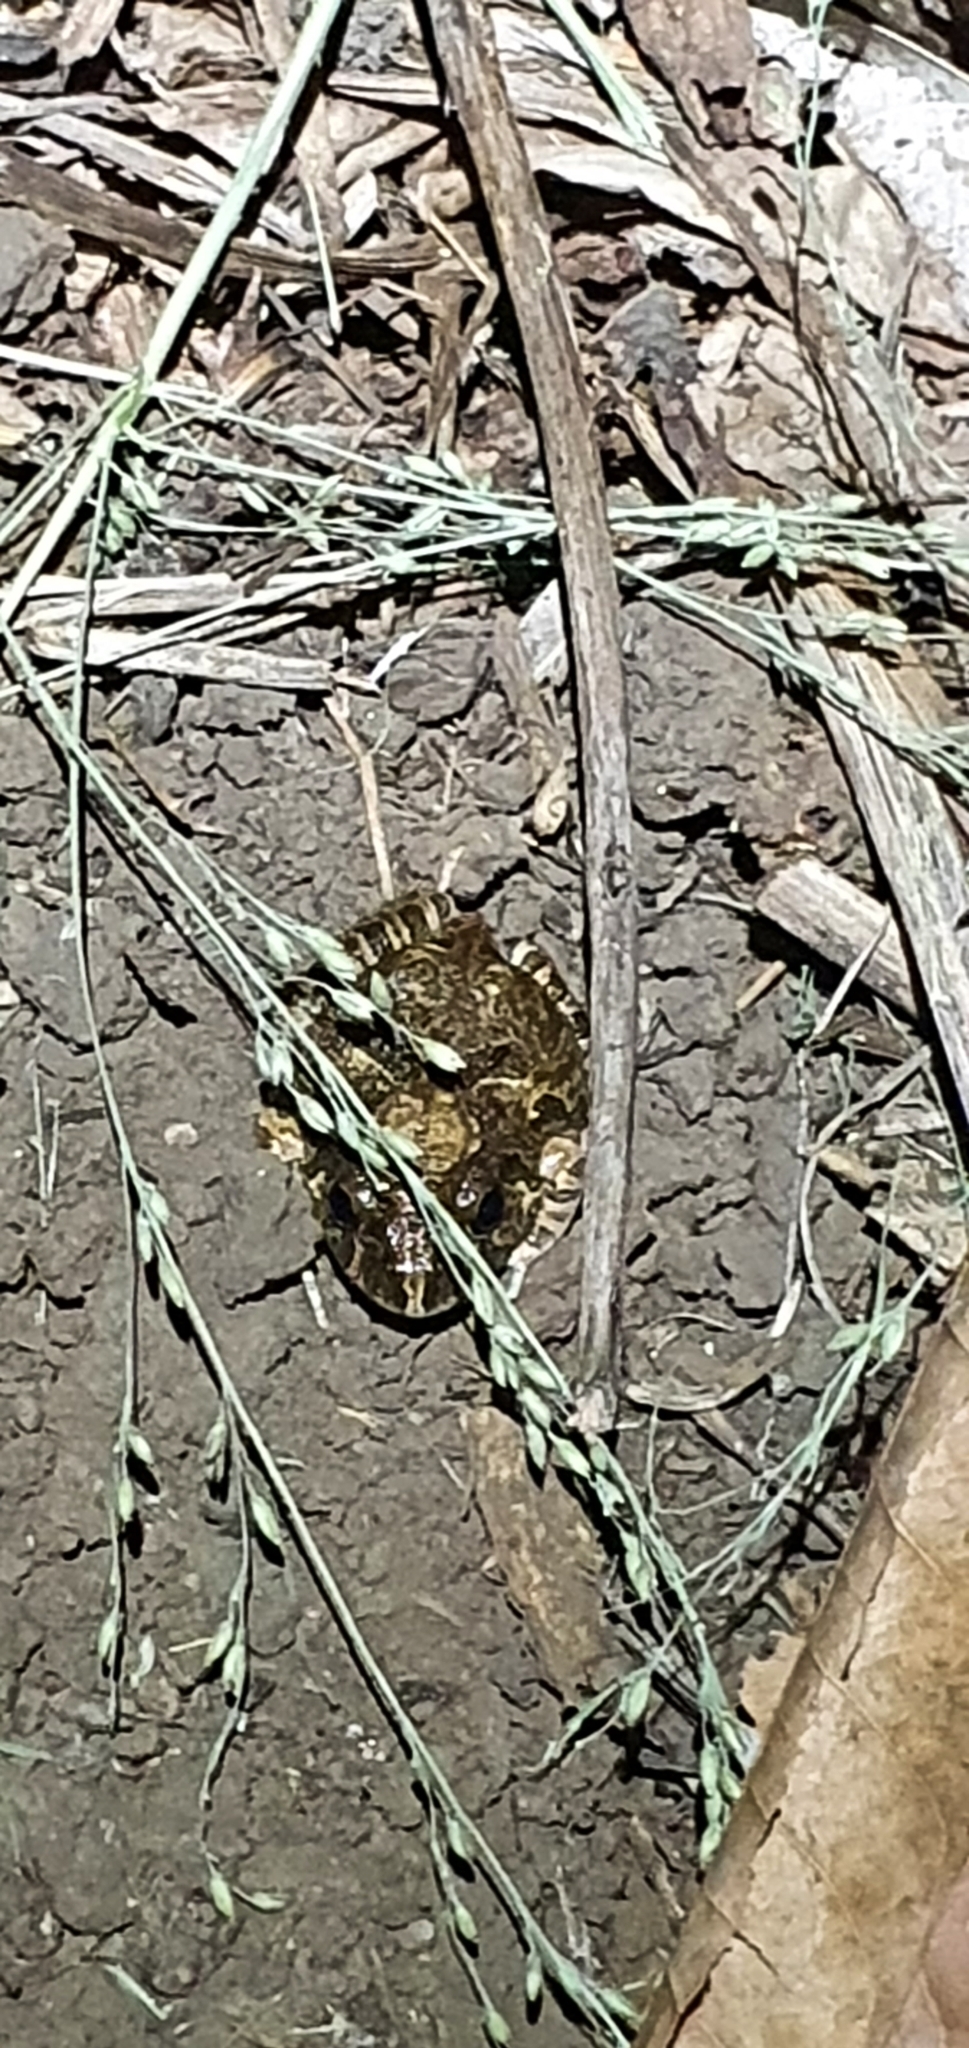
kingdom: Animalia
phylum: Chordata
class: Amphibia
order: Anura
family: Limnodynastidae
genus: Platyplectrum
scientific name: Platyplectrum ornatum
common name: Ornate burrowing frog
